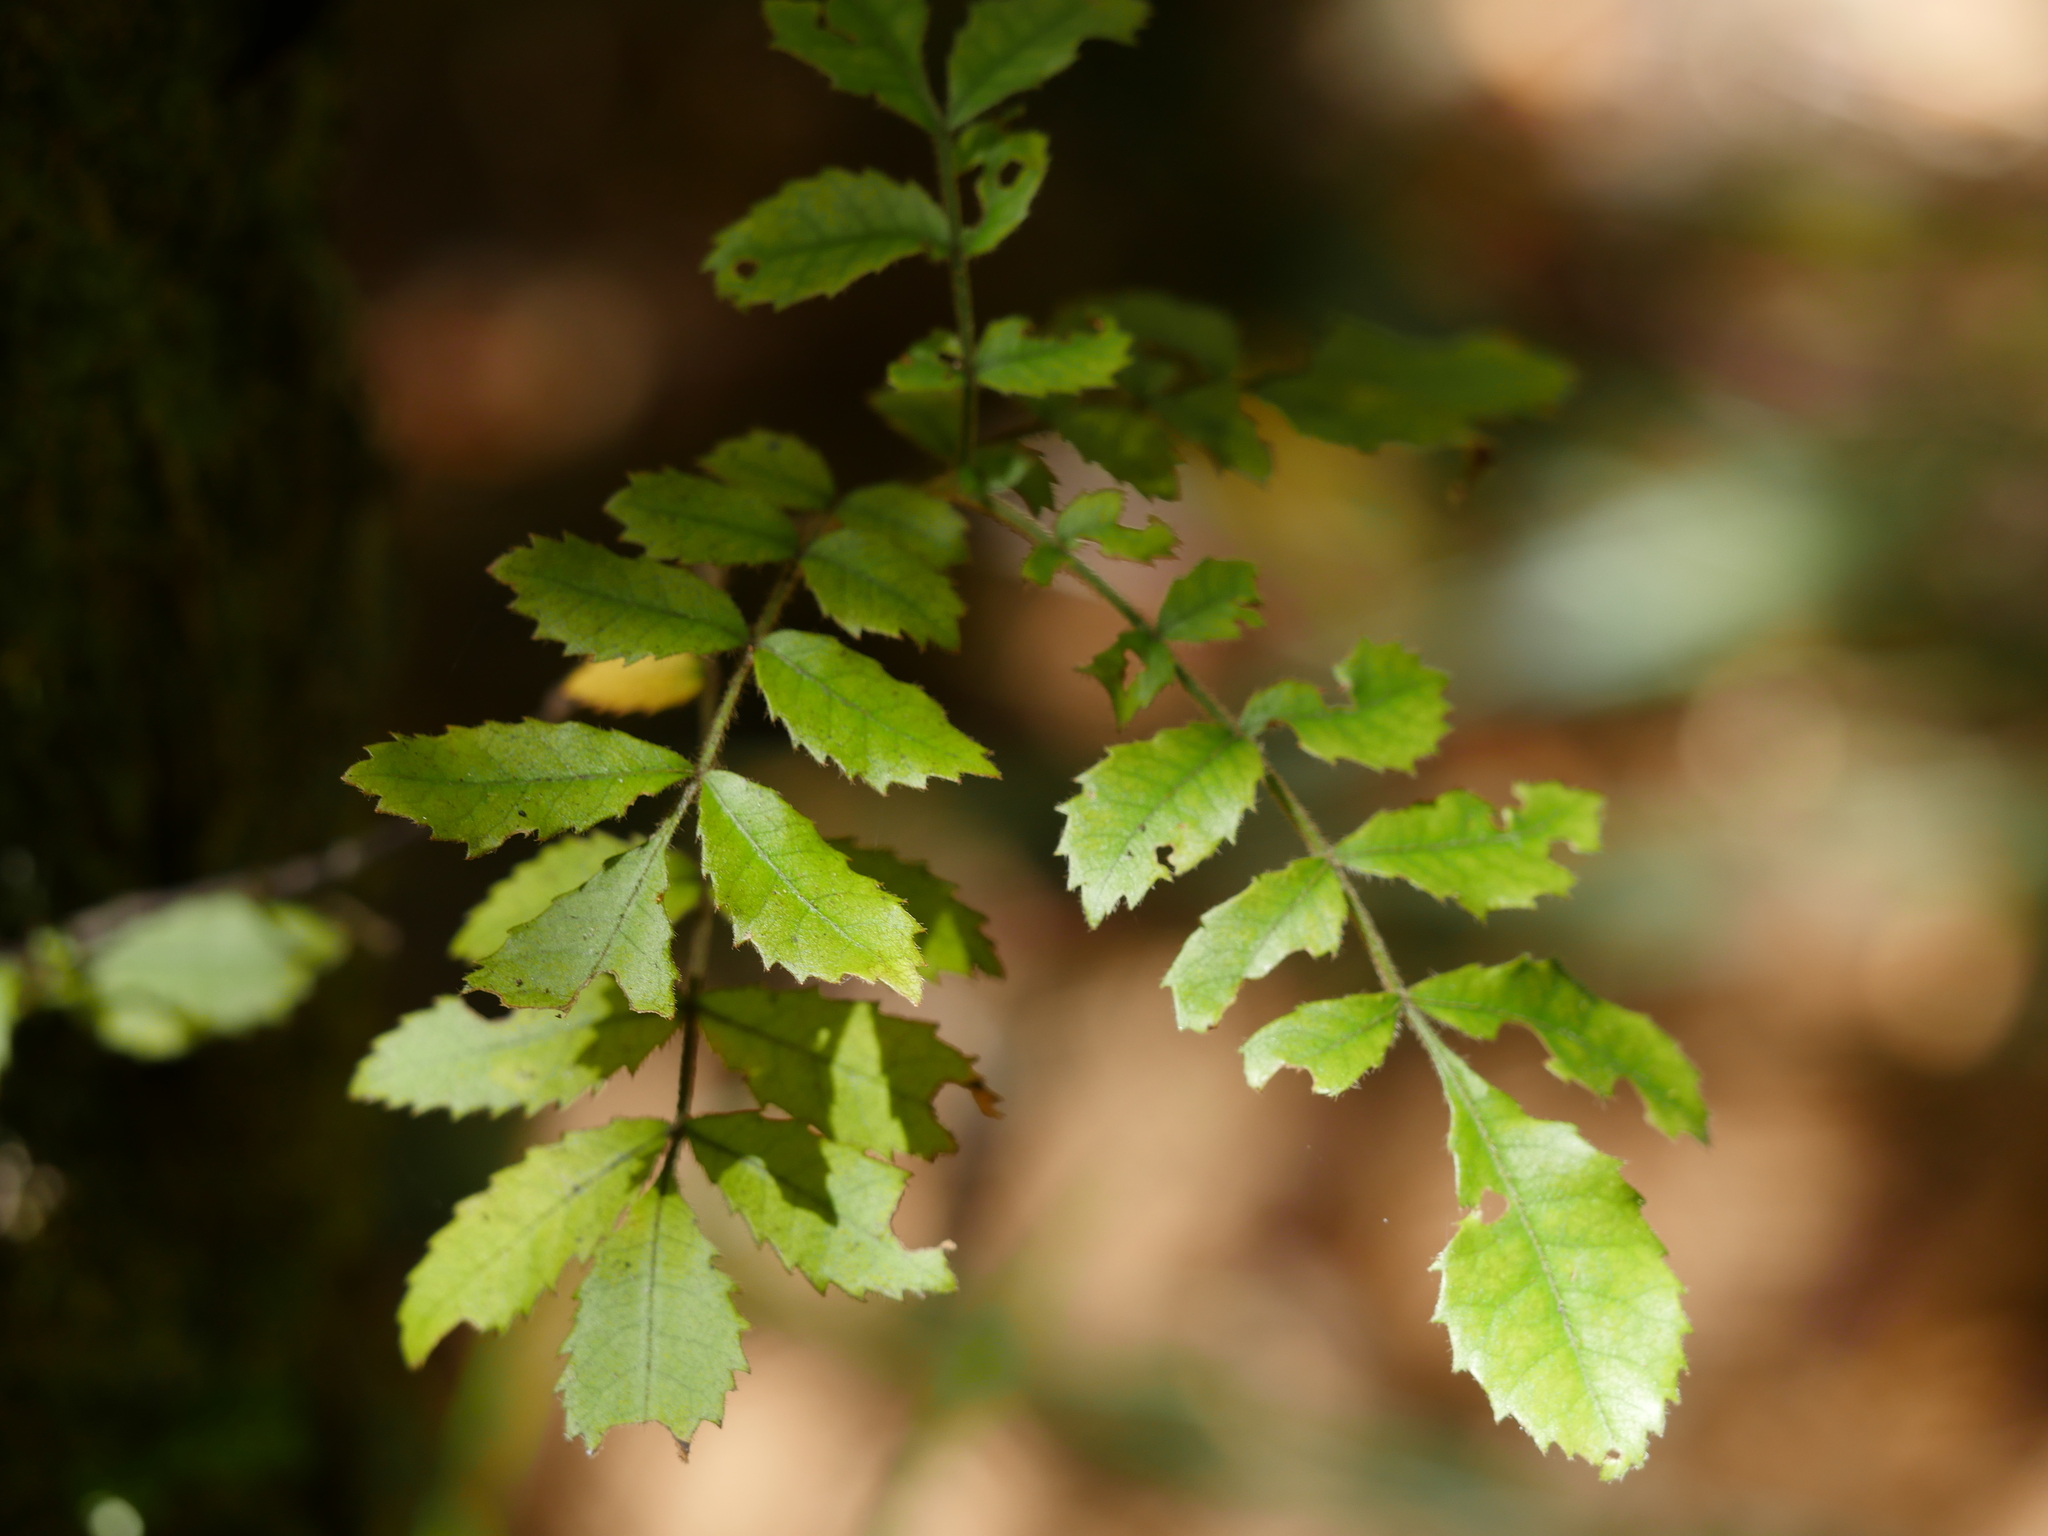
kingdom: Plantae
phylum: Tracheophyta
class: Magnoliopsida
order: Oxalidales
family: Cunoniaceae
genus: Ackama
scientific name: Ackama rosifolia
